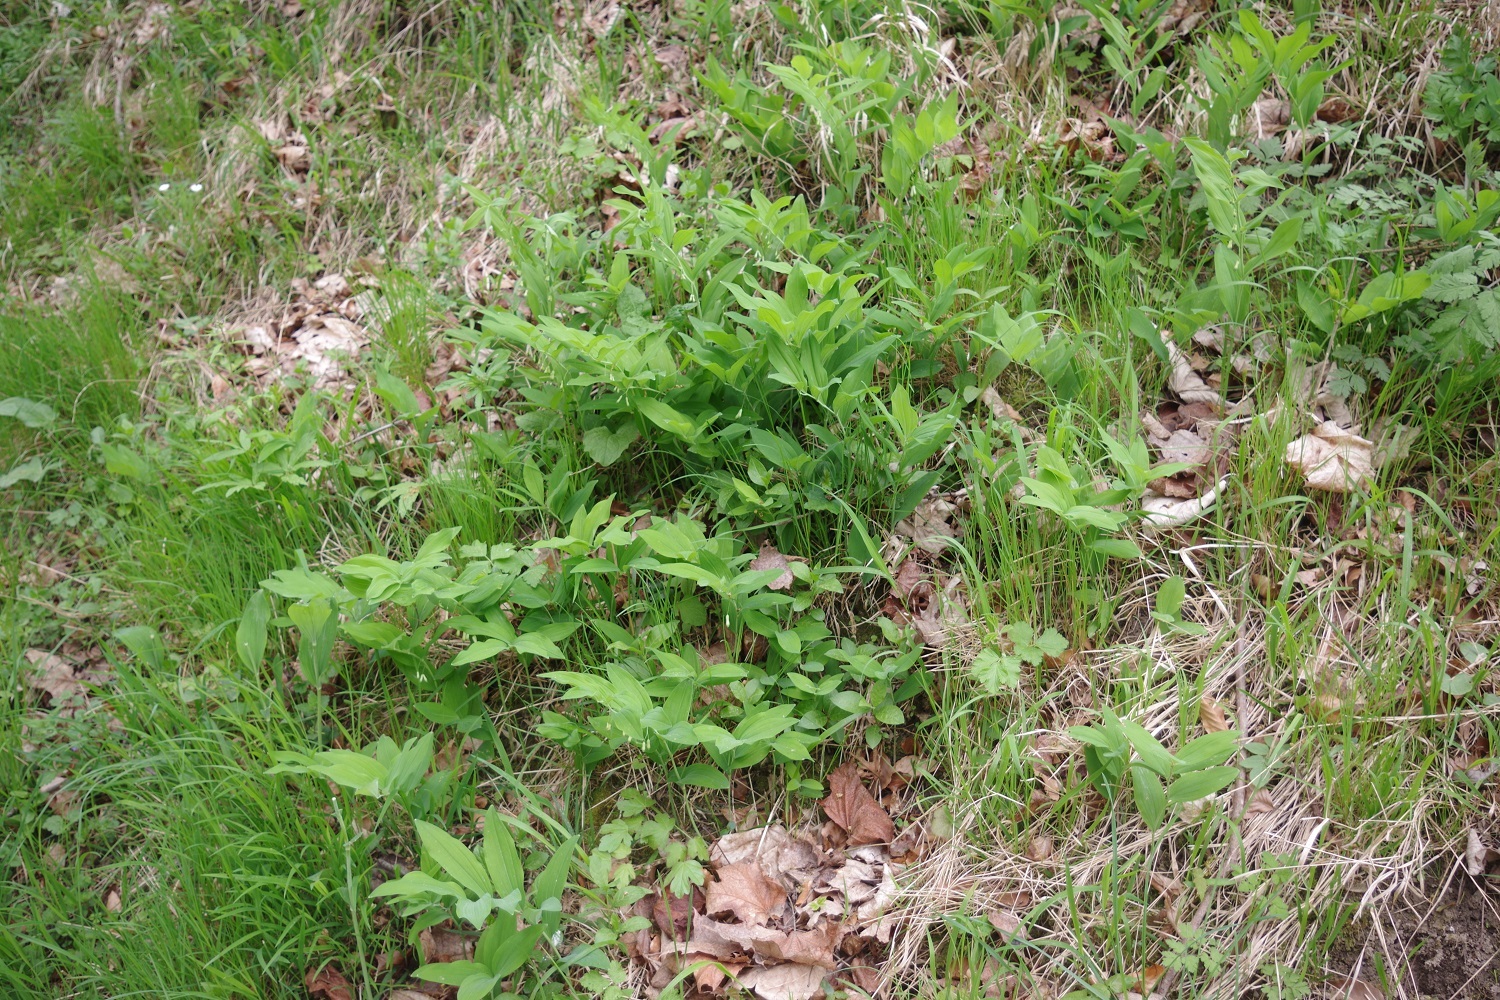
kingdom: Plantae
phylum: Tracheophyta
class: Liliopsida
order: Asparagales
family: Asparagaceae
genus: Polygonatum
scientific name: Polygonatum odoratum
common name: Angular solomon's-seal
